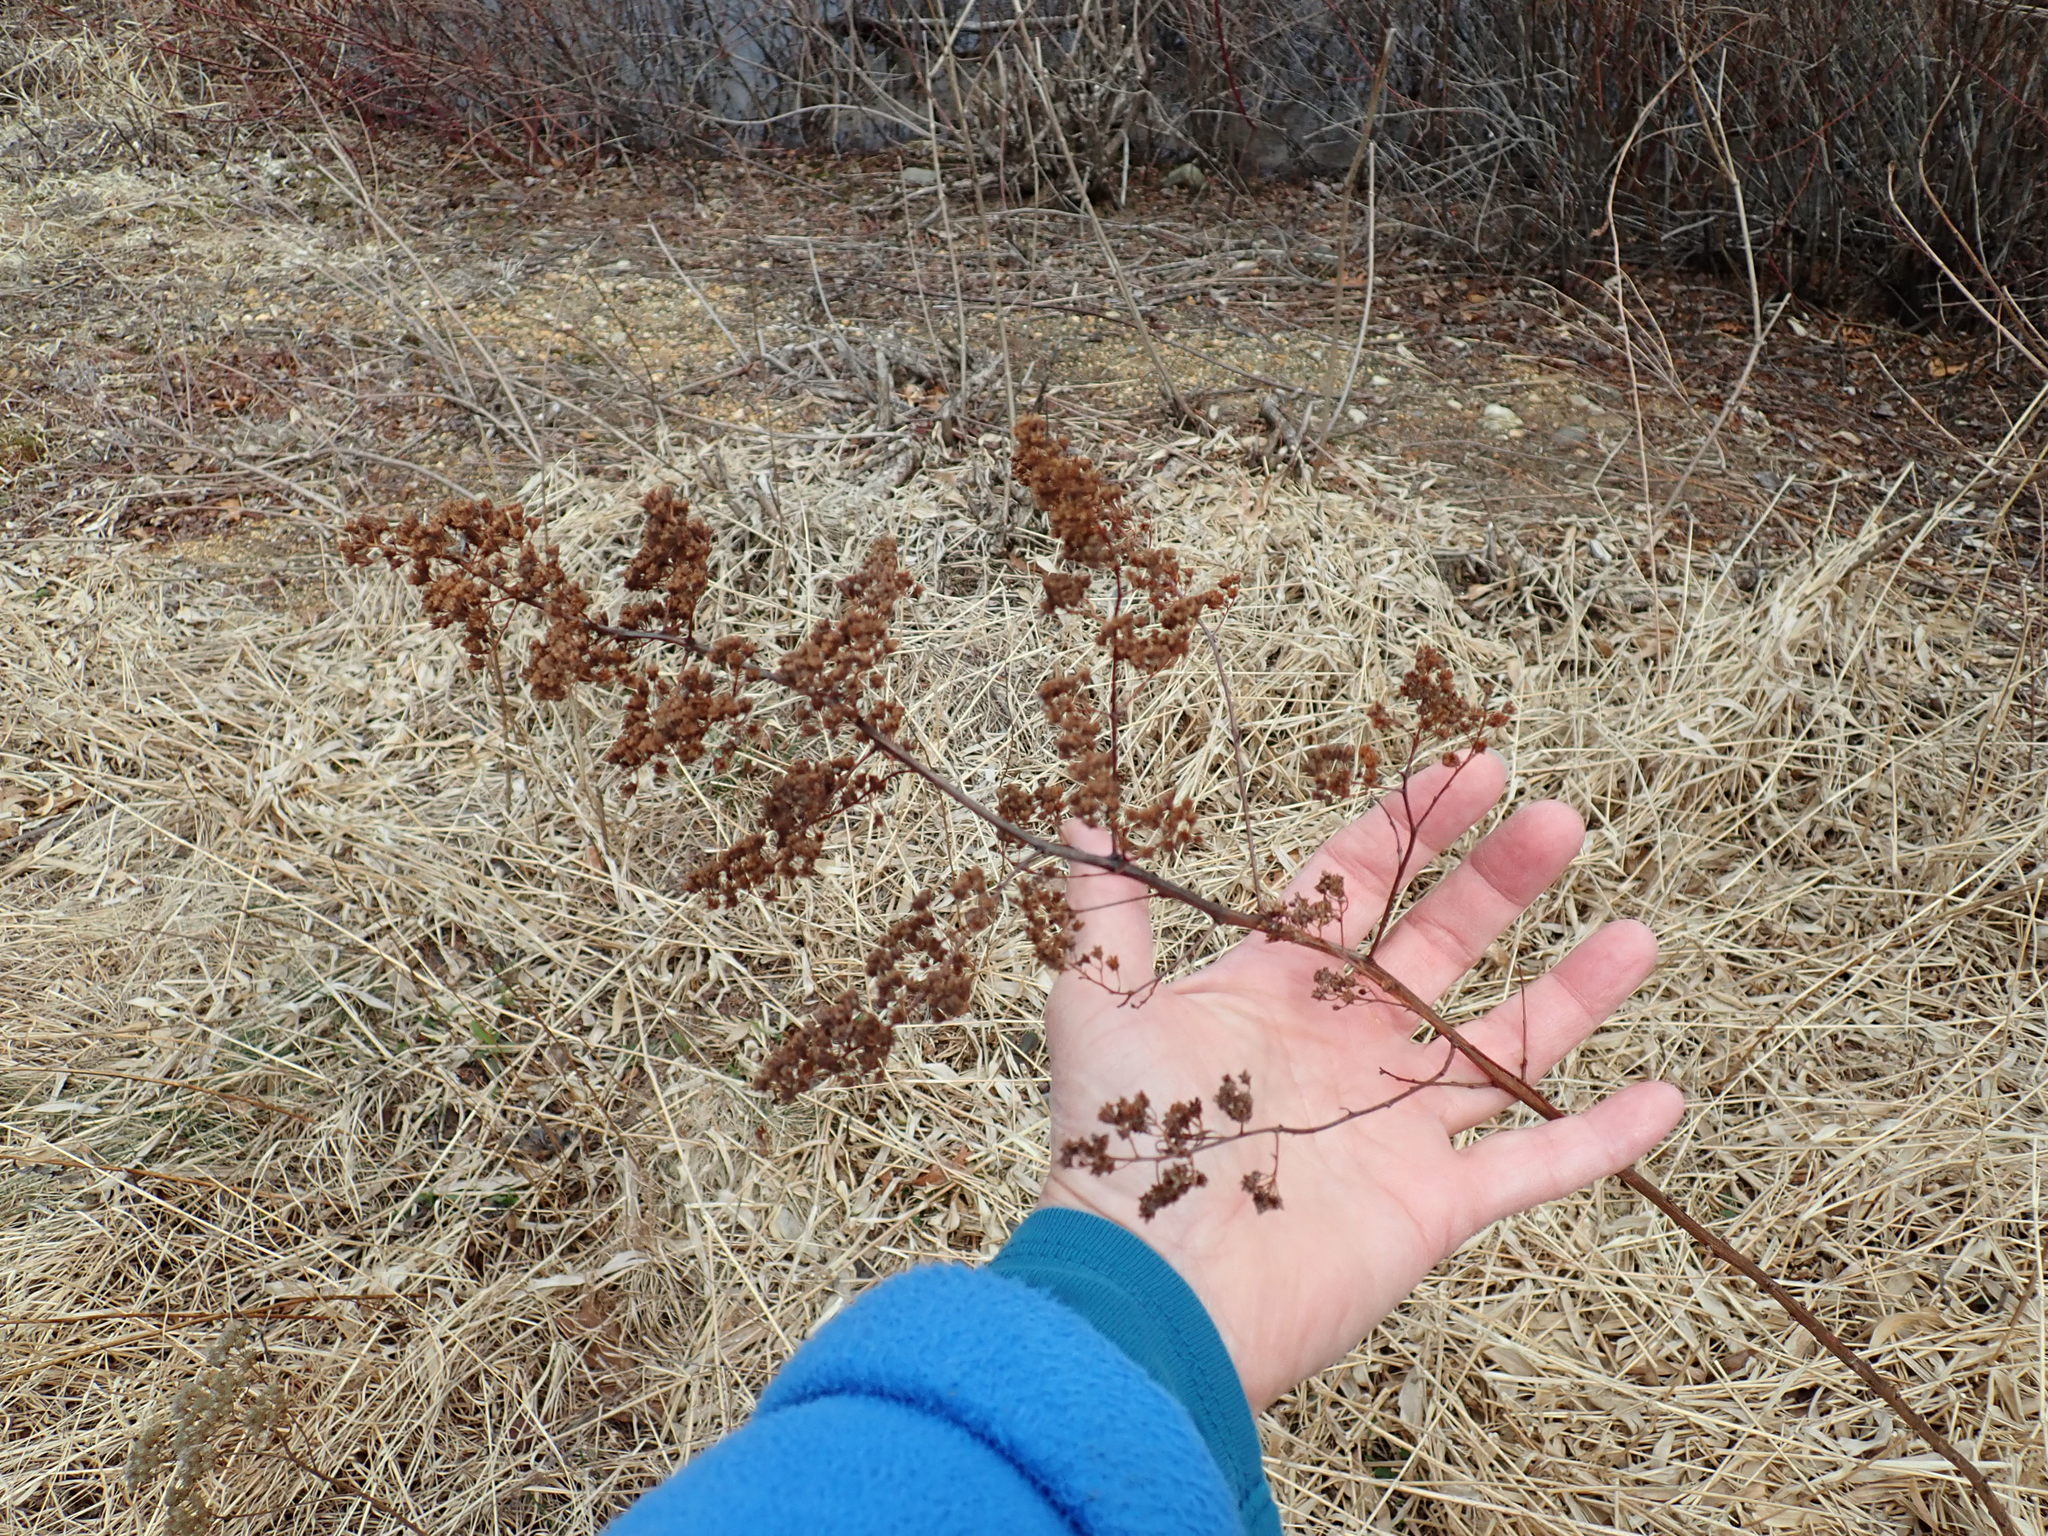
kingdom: Plantae
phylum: Tracheophyta
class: Magnoliopsida
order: Rosales
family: Rosaceae
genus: Spiraea
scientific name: Spiraea alba
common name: Pale bridewort
